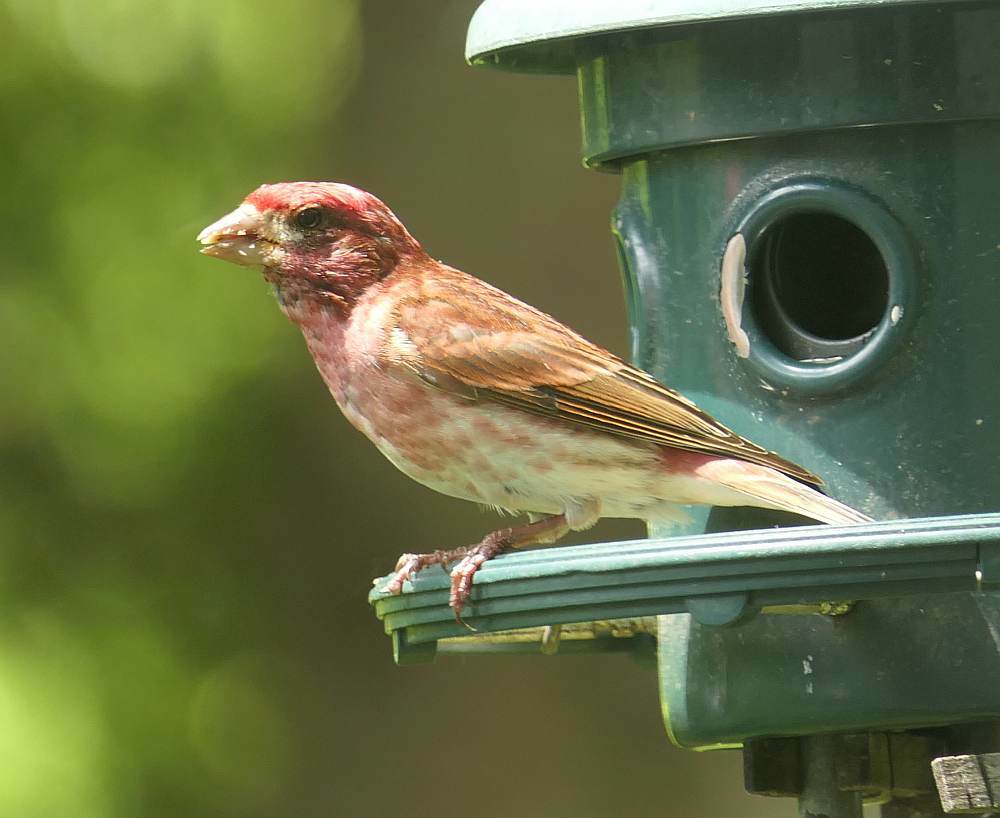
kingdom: Animalia
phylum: Chordata
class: Aves
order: Passeriformes
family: Fringillidae
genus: Haemorhous
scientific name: Haemorhous purpureus
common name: Purple finch
